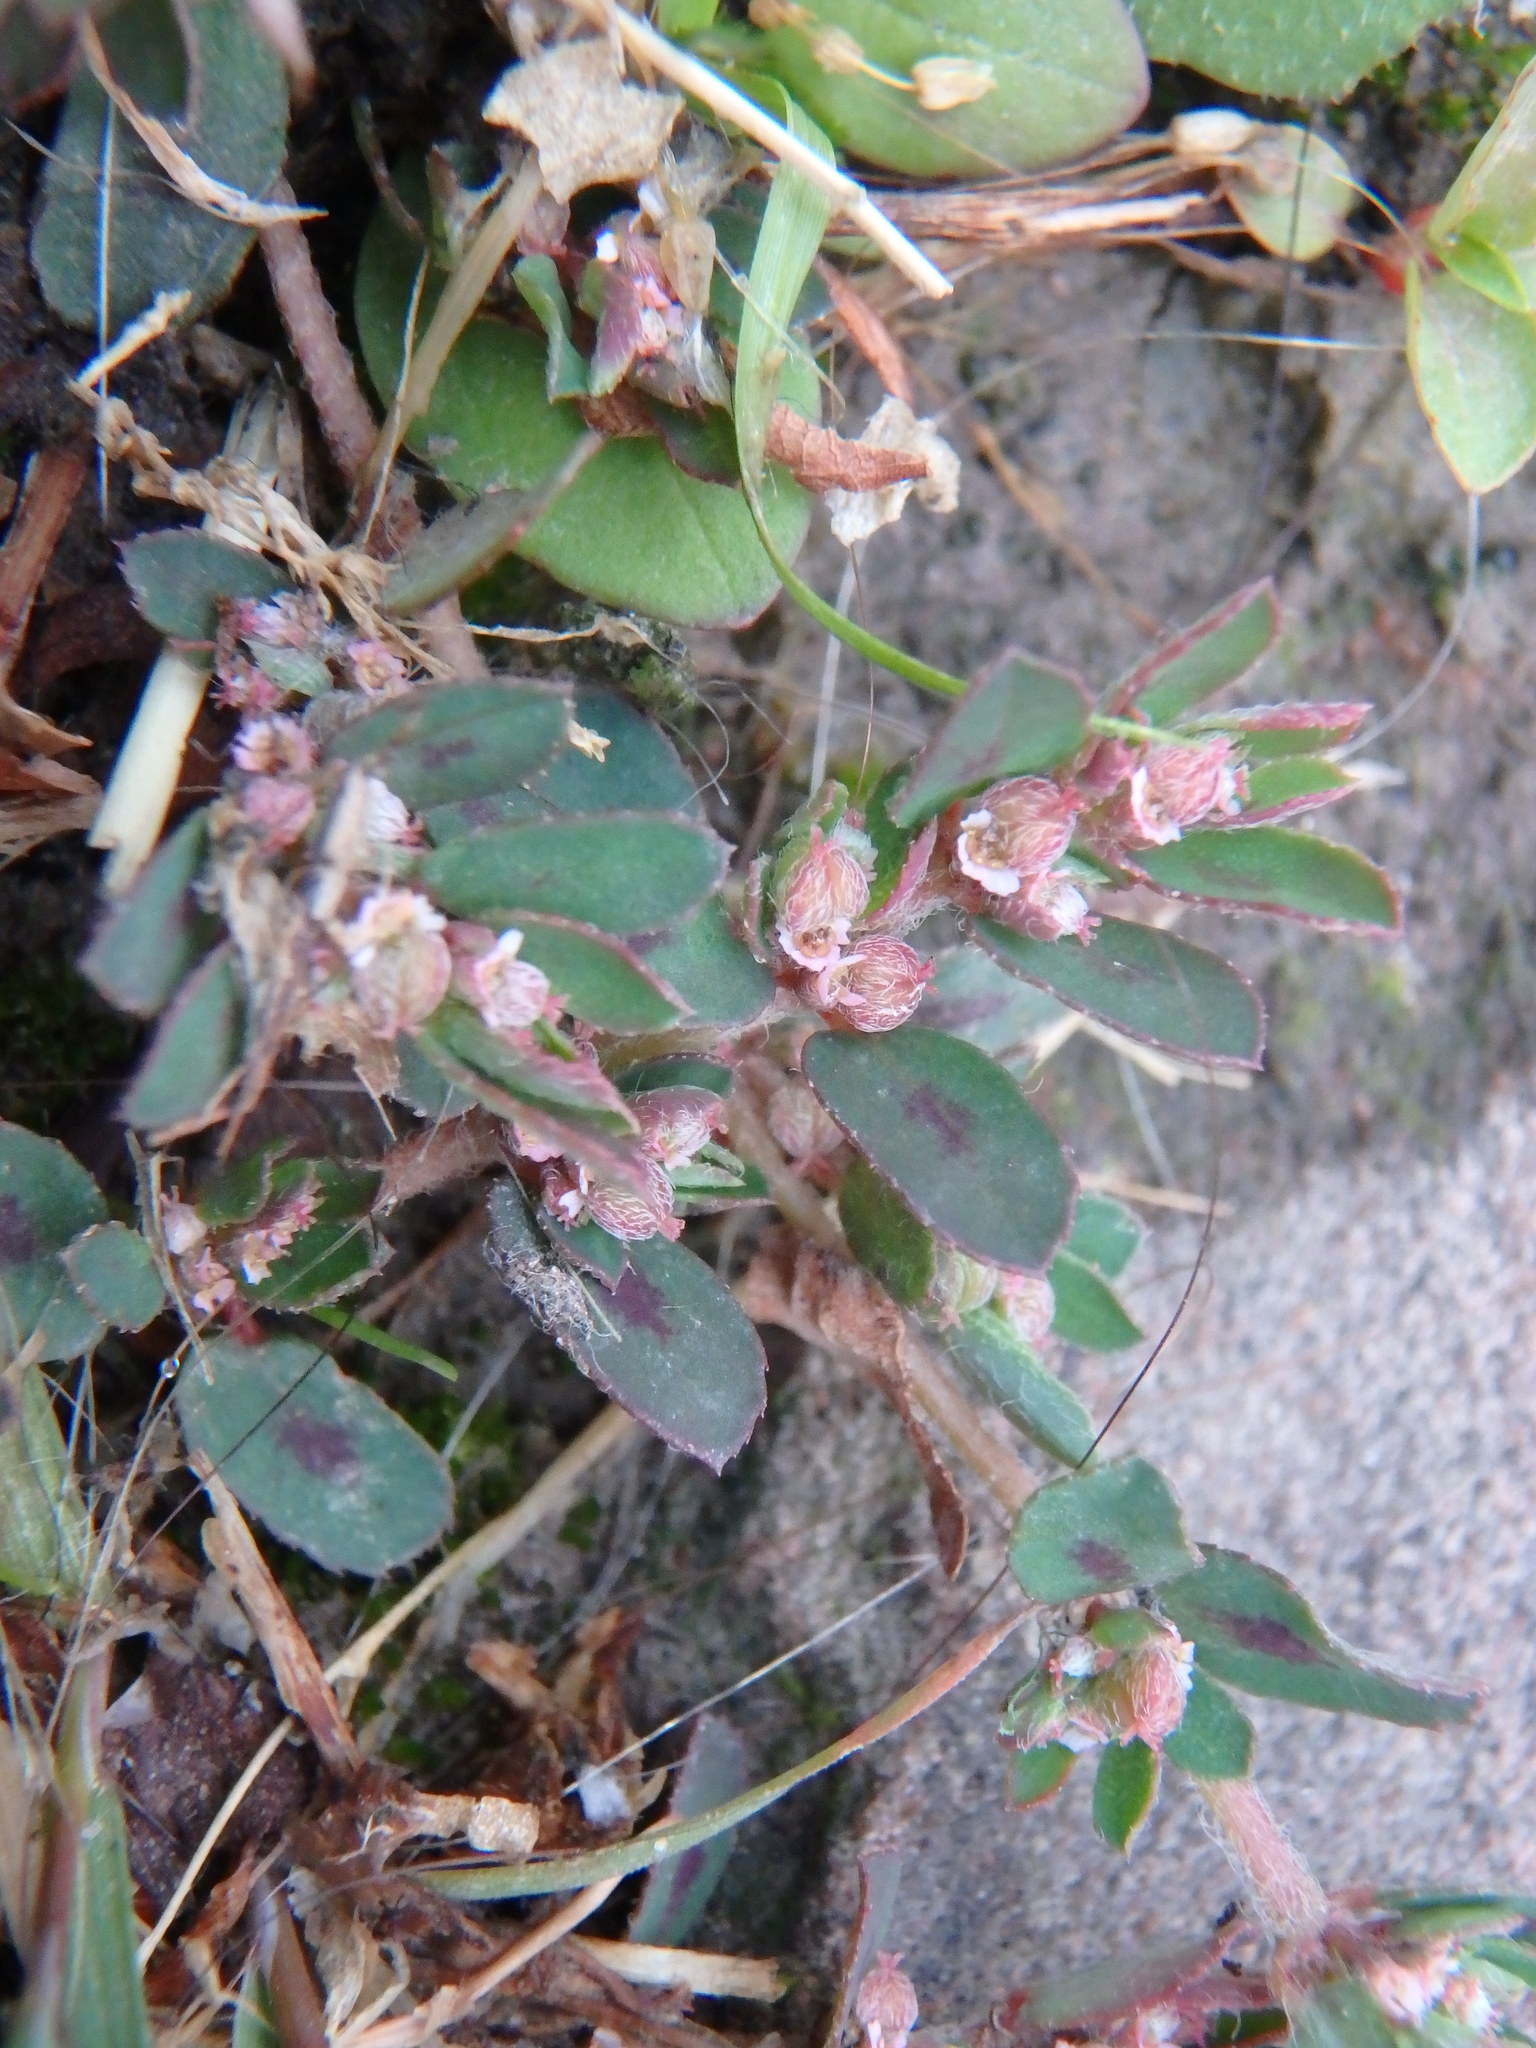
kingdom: Plantae
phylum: Tracheophyta
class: Magnoliopsida
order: Malpighiales
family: Euphorbiaceae
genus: Euphorbia
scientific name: Euphorbia maculata
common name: Spotted spurge
